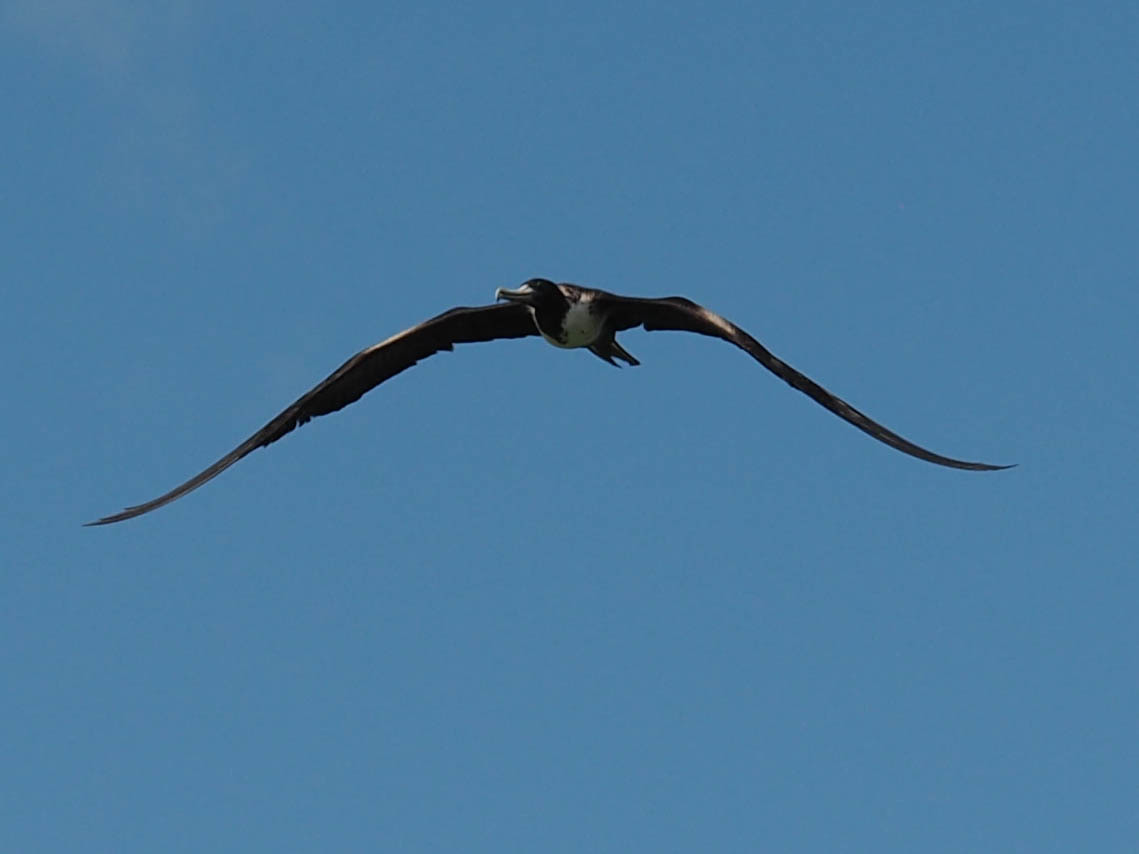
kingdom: Animalia
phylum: Chordata
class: Aves
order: Suliformes
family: Fregatidae
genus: Fregata
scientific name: Fregata magnificens
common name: Magnificent frigatebird
